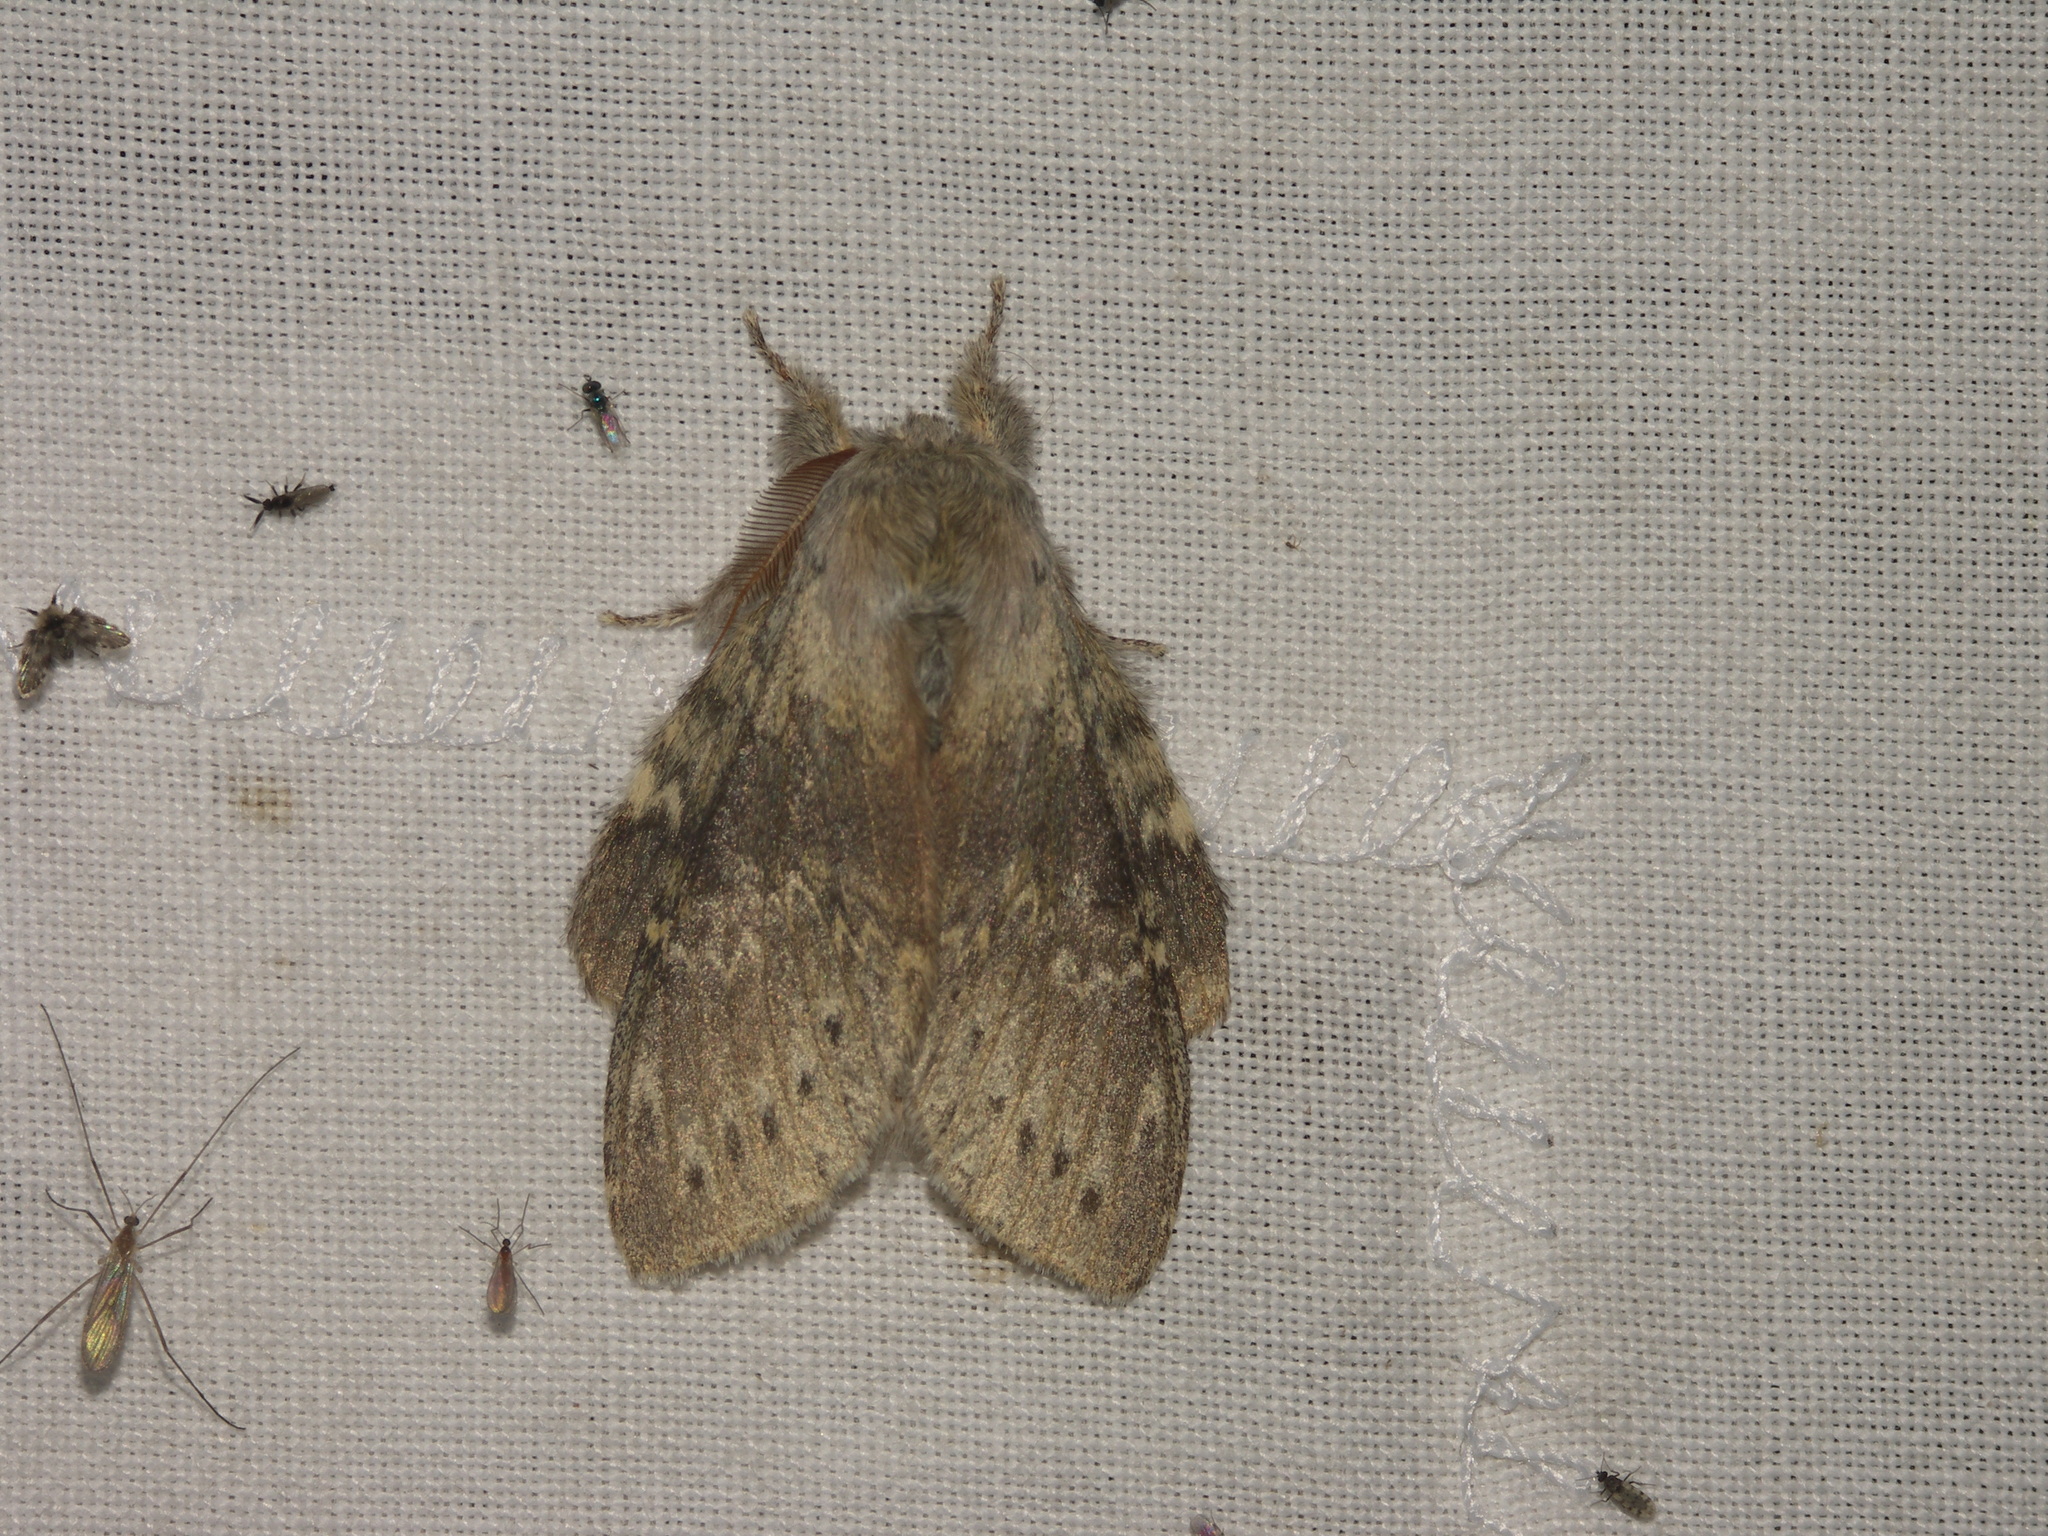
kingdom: Animalia
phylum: Arthropoda
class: Insecta
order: Lepidoptera
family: Notodontidae
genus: Stauropus
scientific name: Stauropus fagi
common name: Lobster moth
